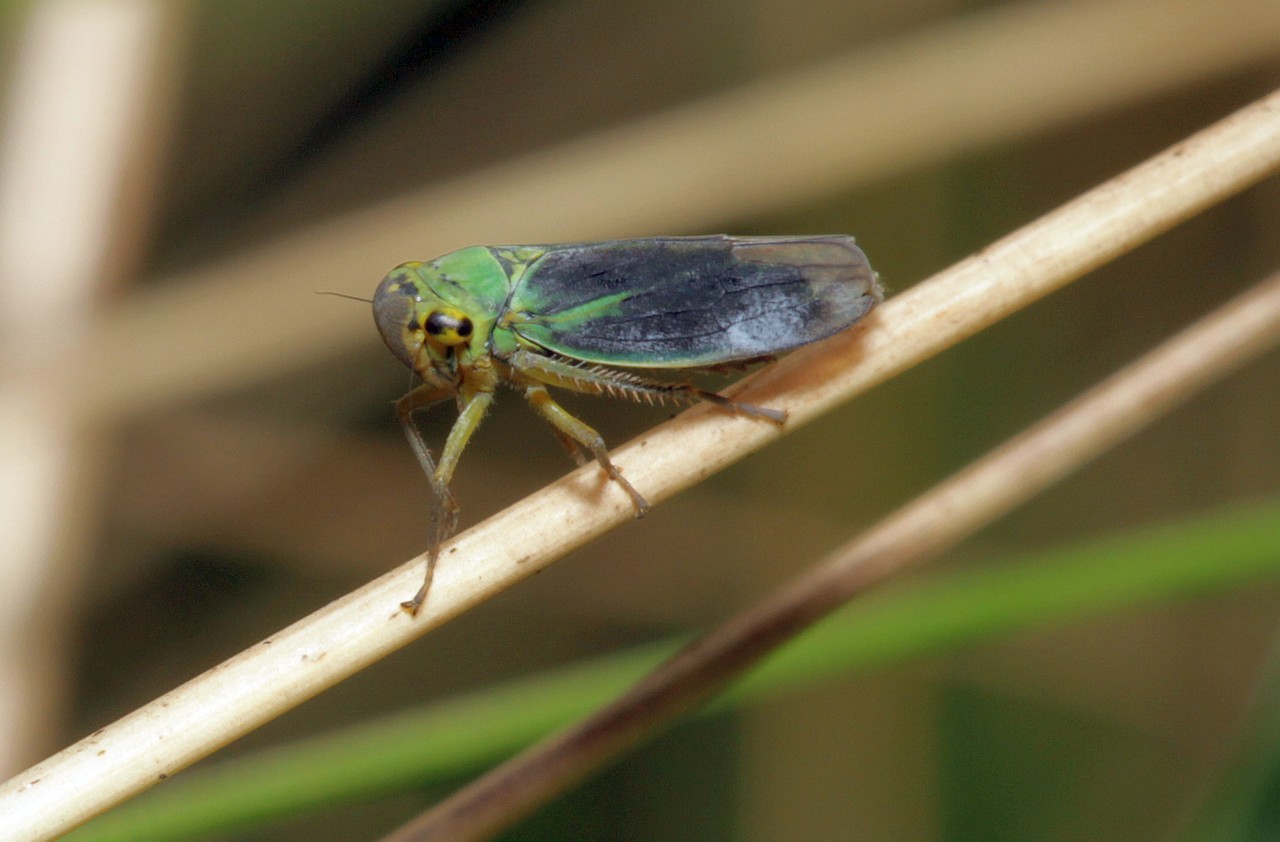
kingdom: Animalia
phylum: Arthropoda
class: Insecta
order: Hemiptera
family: Cicadellidae
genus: Cicadella
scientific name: Cicadella viridis
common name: Leafhopper
